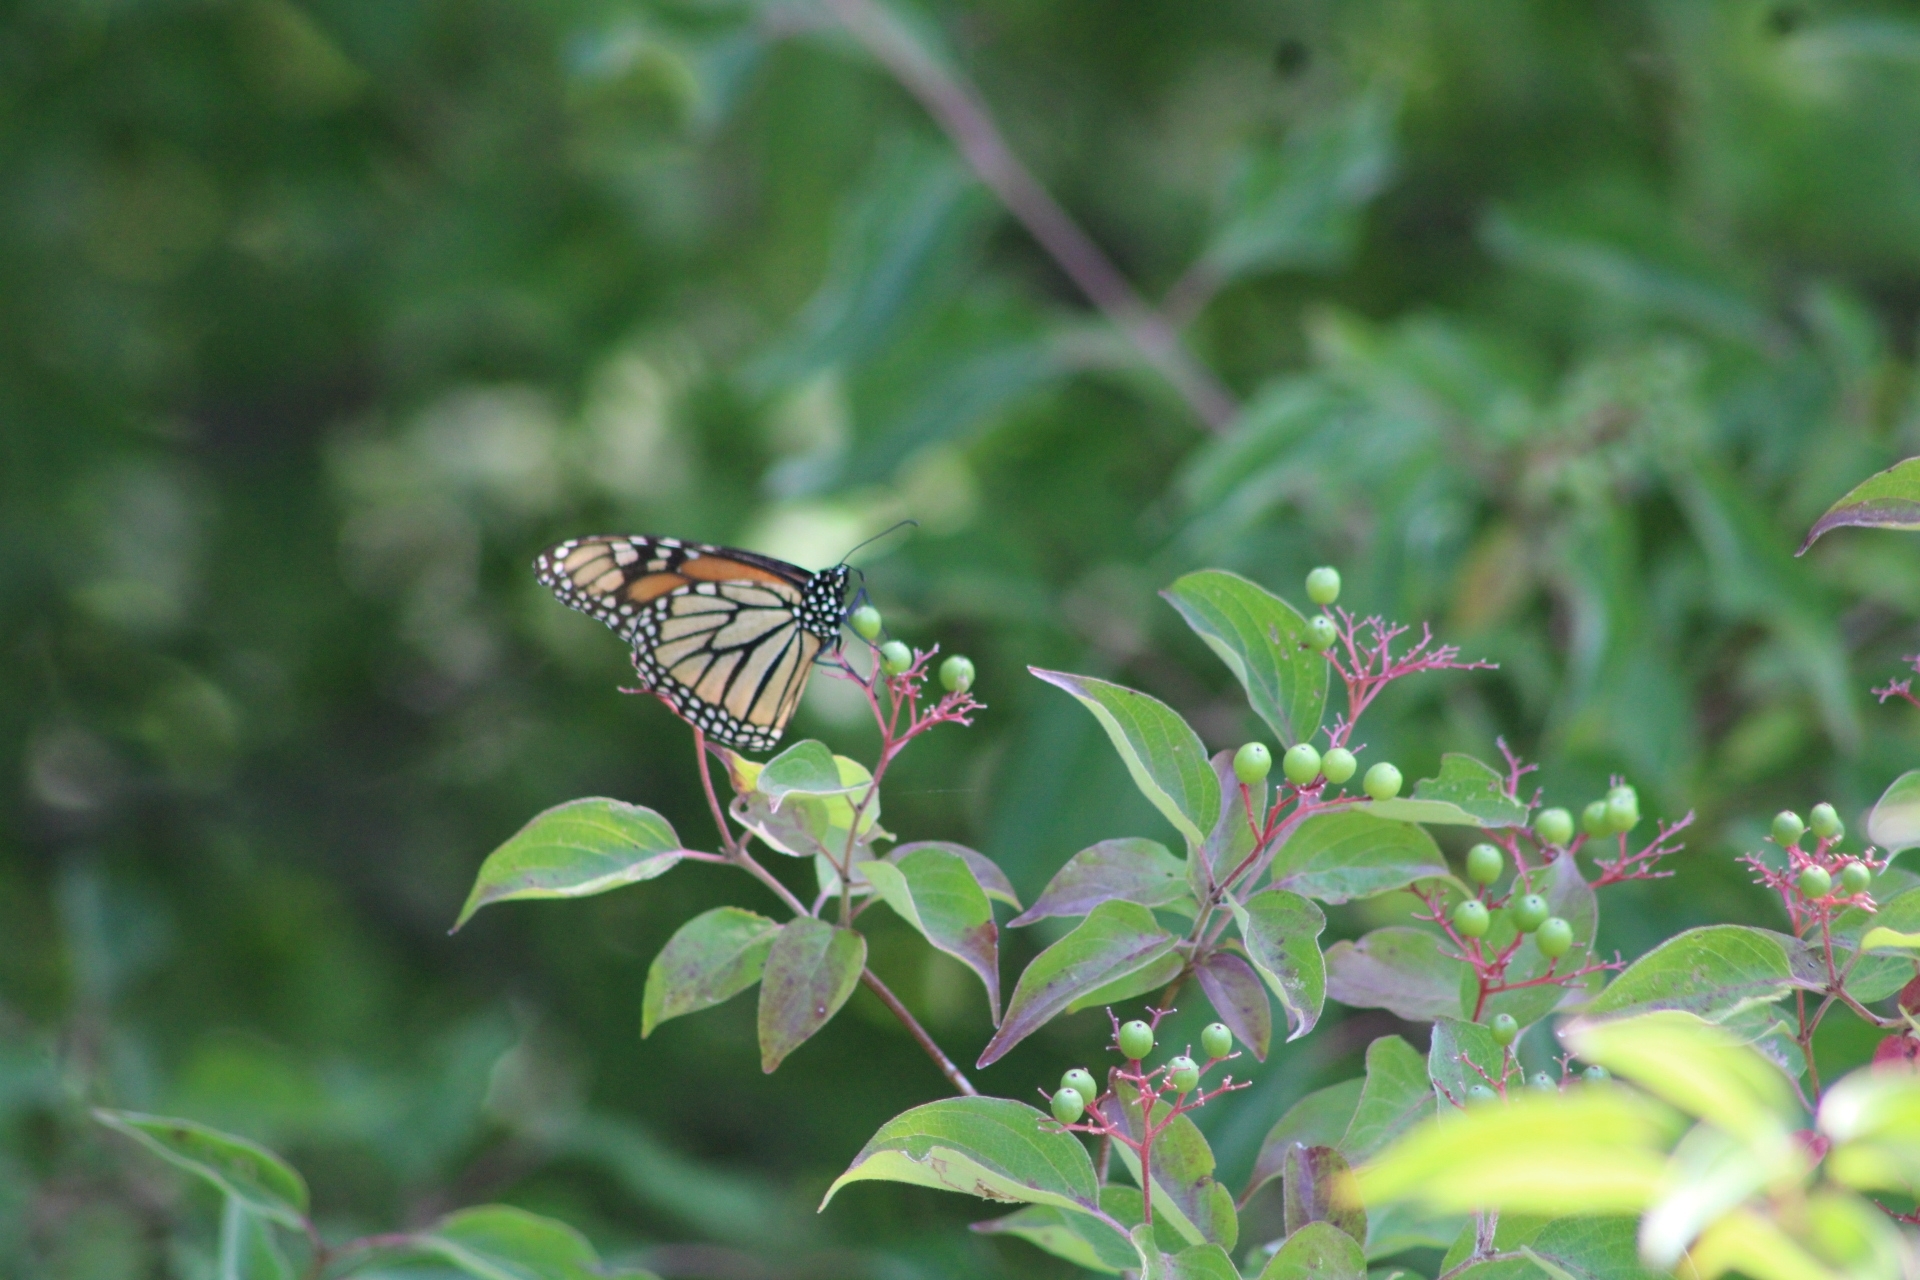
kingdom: Animalia
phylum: Arthropoda
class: Insecta
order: Lepidoptera
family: Nymphalidae
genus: Danaus
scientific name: Danaus plexippus
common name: Monarch
